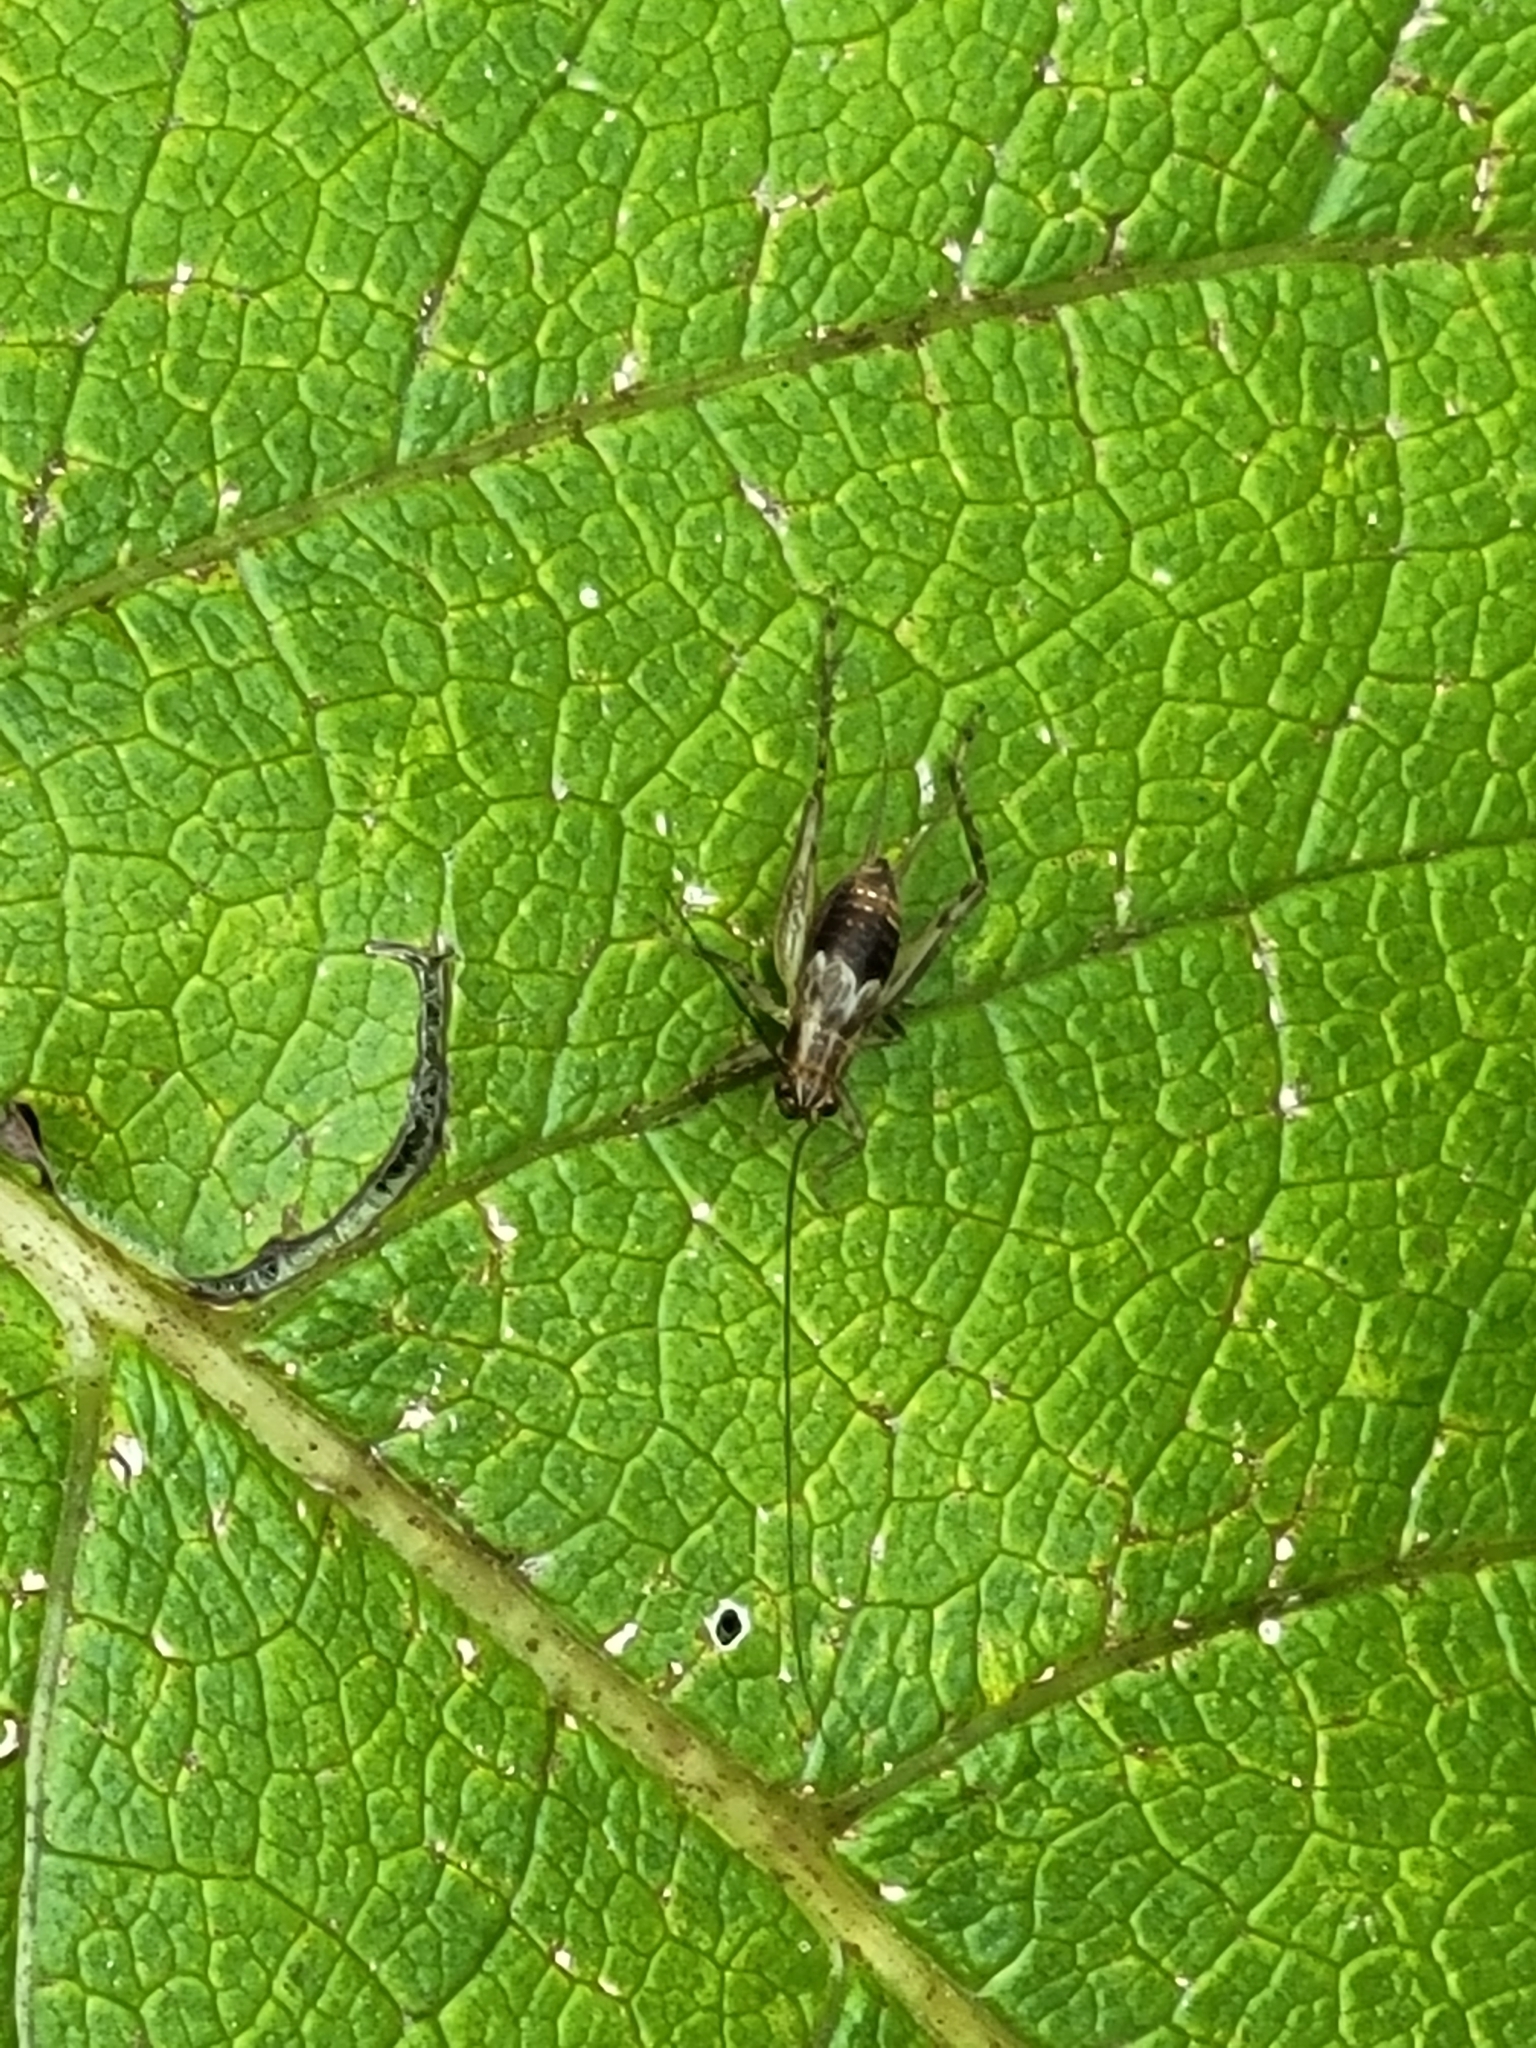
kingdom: Animalia
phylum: Arthropoda
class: Insecta
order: Orthoptera
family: Trigonidiidae
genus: Anaxipha
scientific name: Anaxipha exigua
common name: Say's bush cricket
